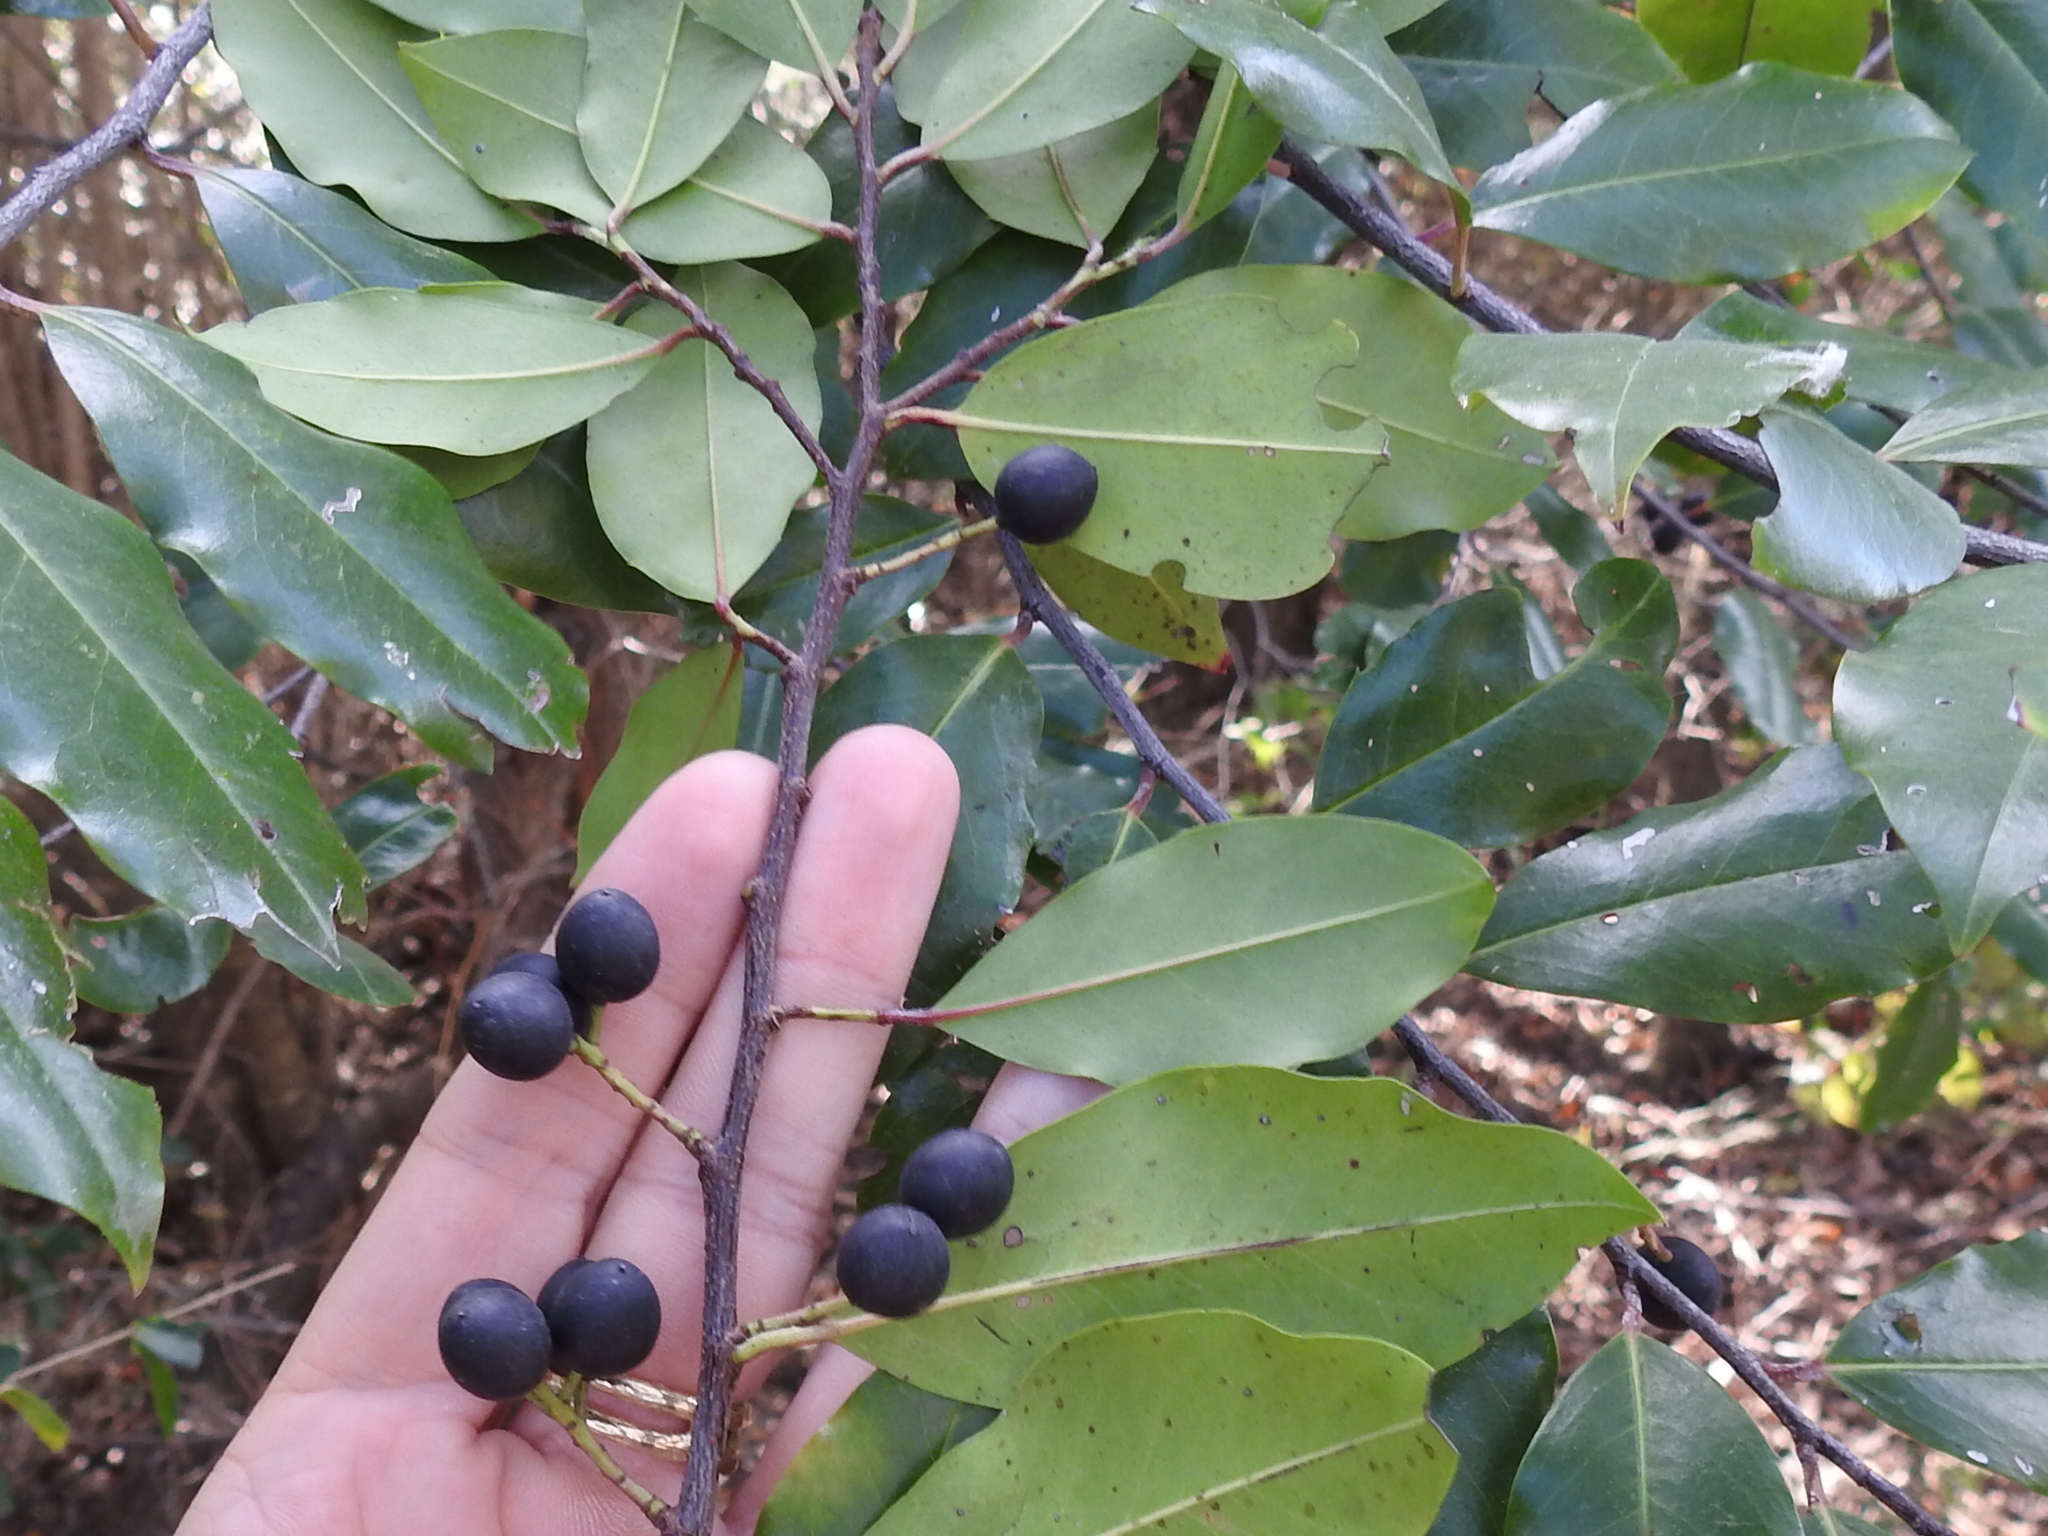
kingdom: Plantae
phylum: Tracheophyta
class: Magnoliopsida
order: Rosales
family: Rosaceae
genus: Prunus
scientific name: Prunus caroliniana
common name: Carolina laurel cherry
